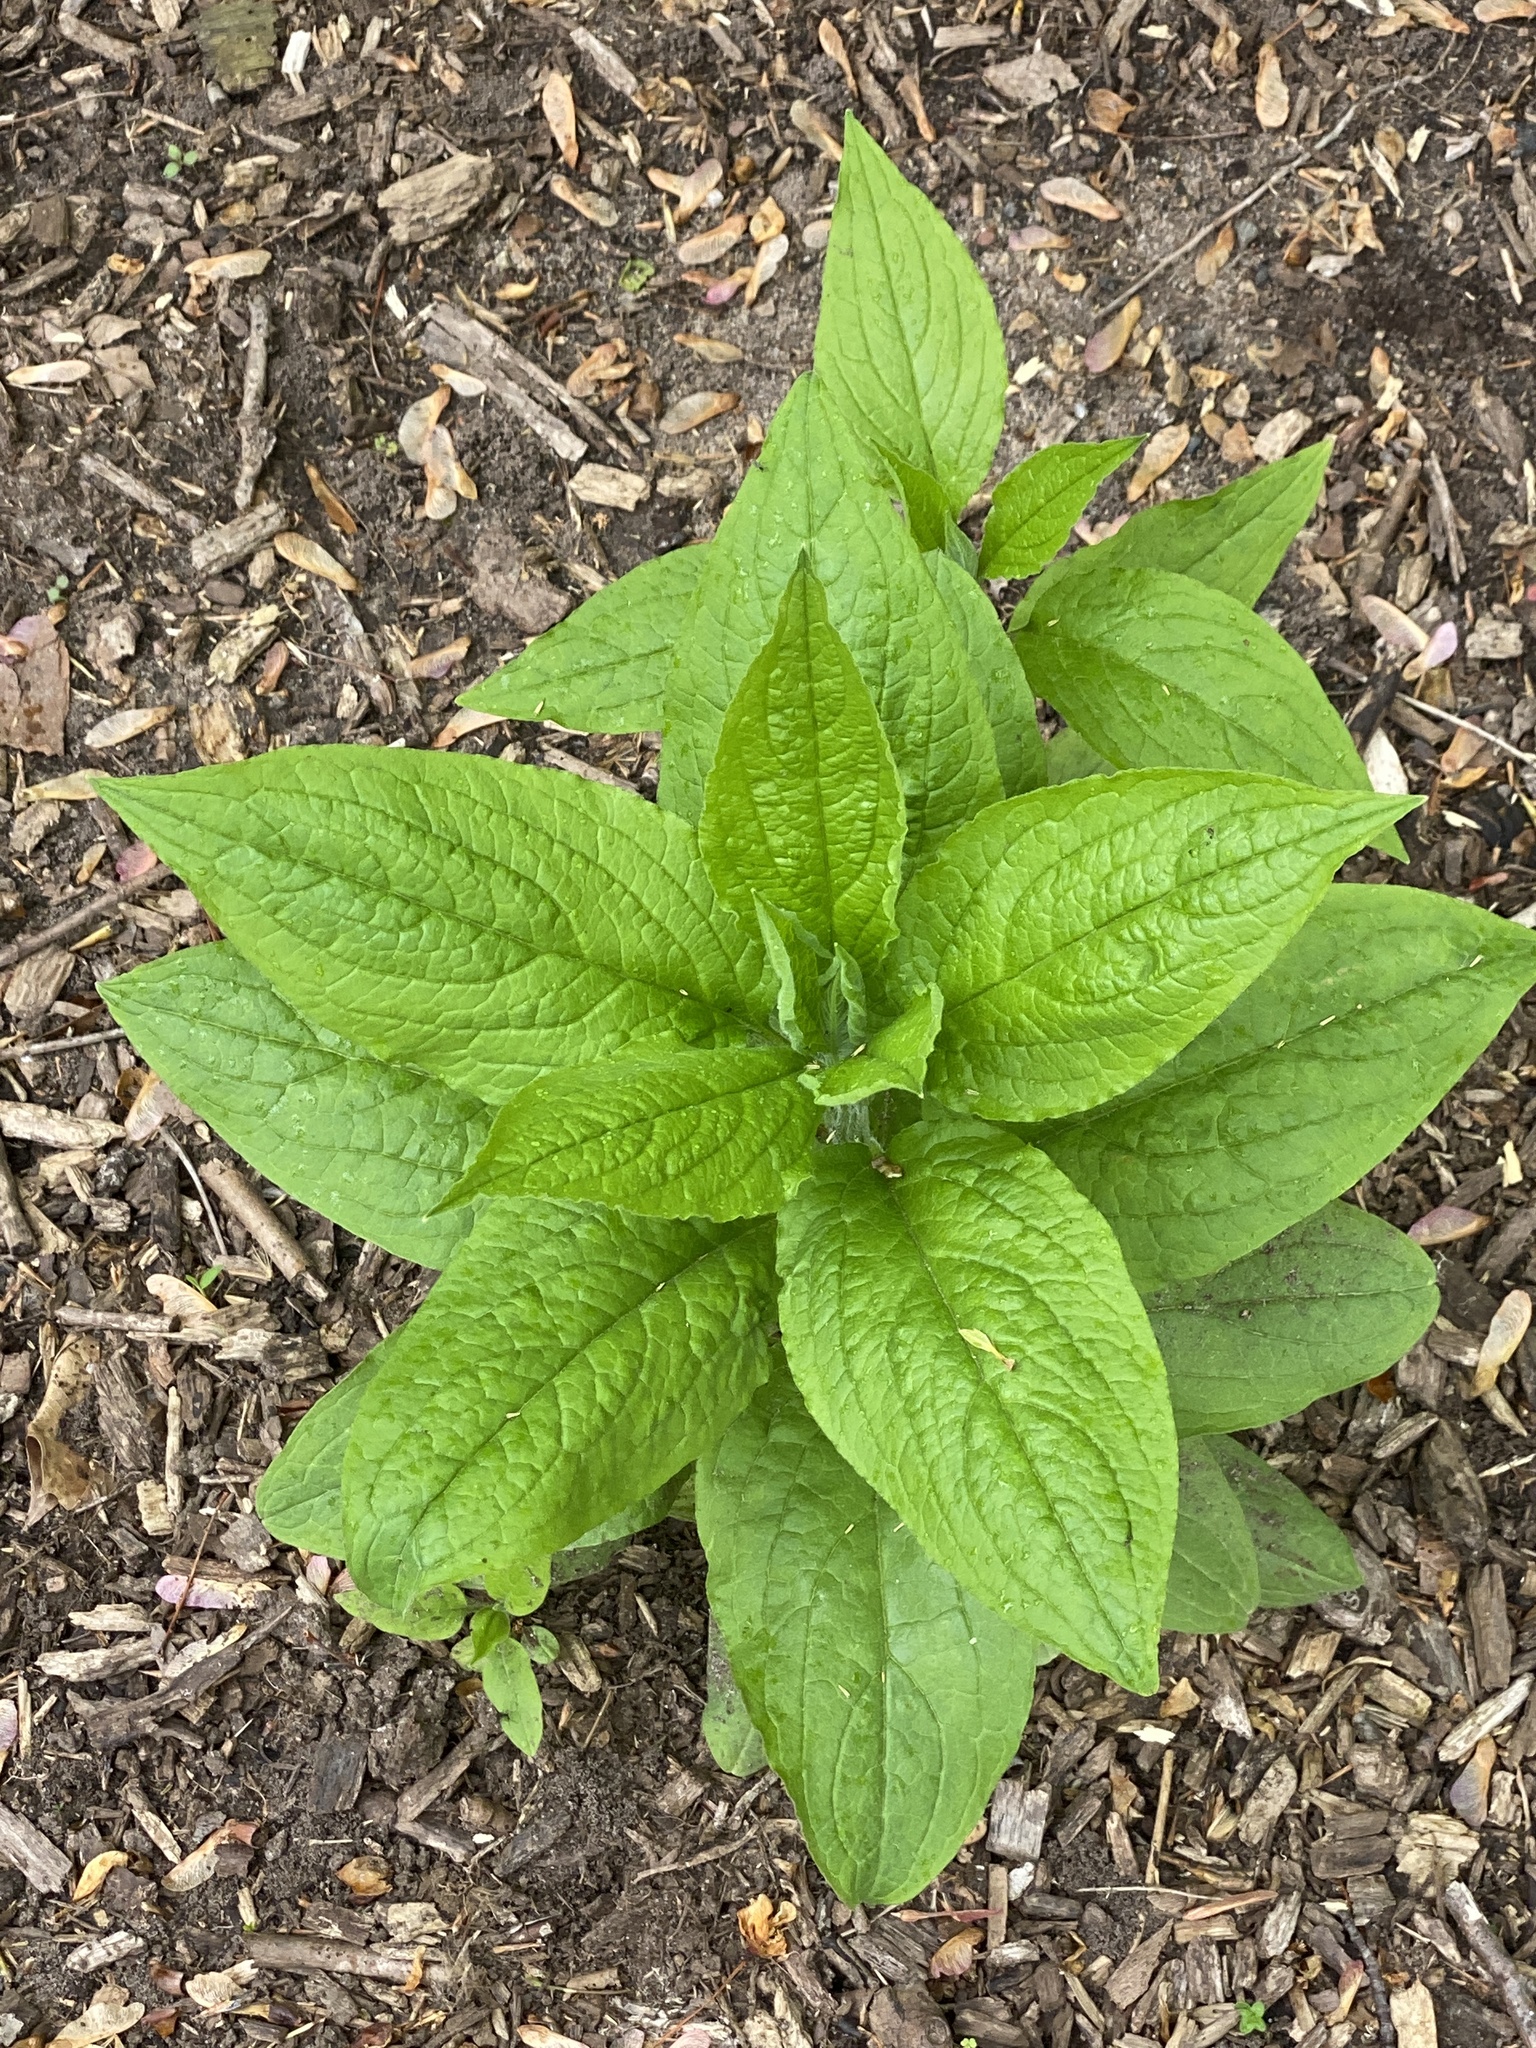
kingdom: Plantae
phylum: Tracheophyta
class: Magnoliopsida
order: Boraginales
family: Boraginaceae
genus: Hackelia
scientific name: Hackelia virginiana
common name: Beggar's-lice
